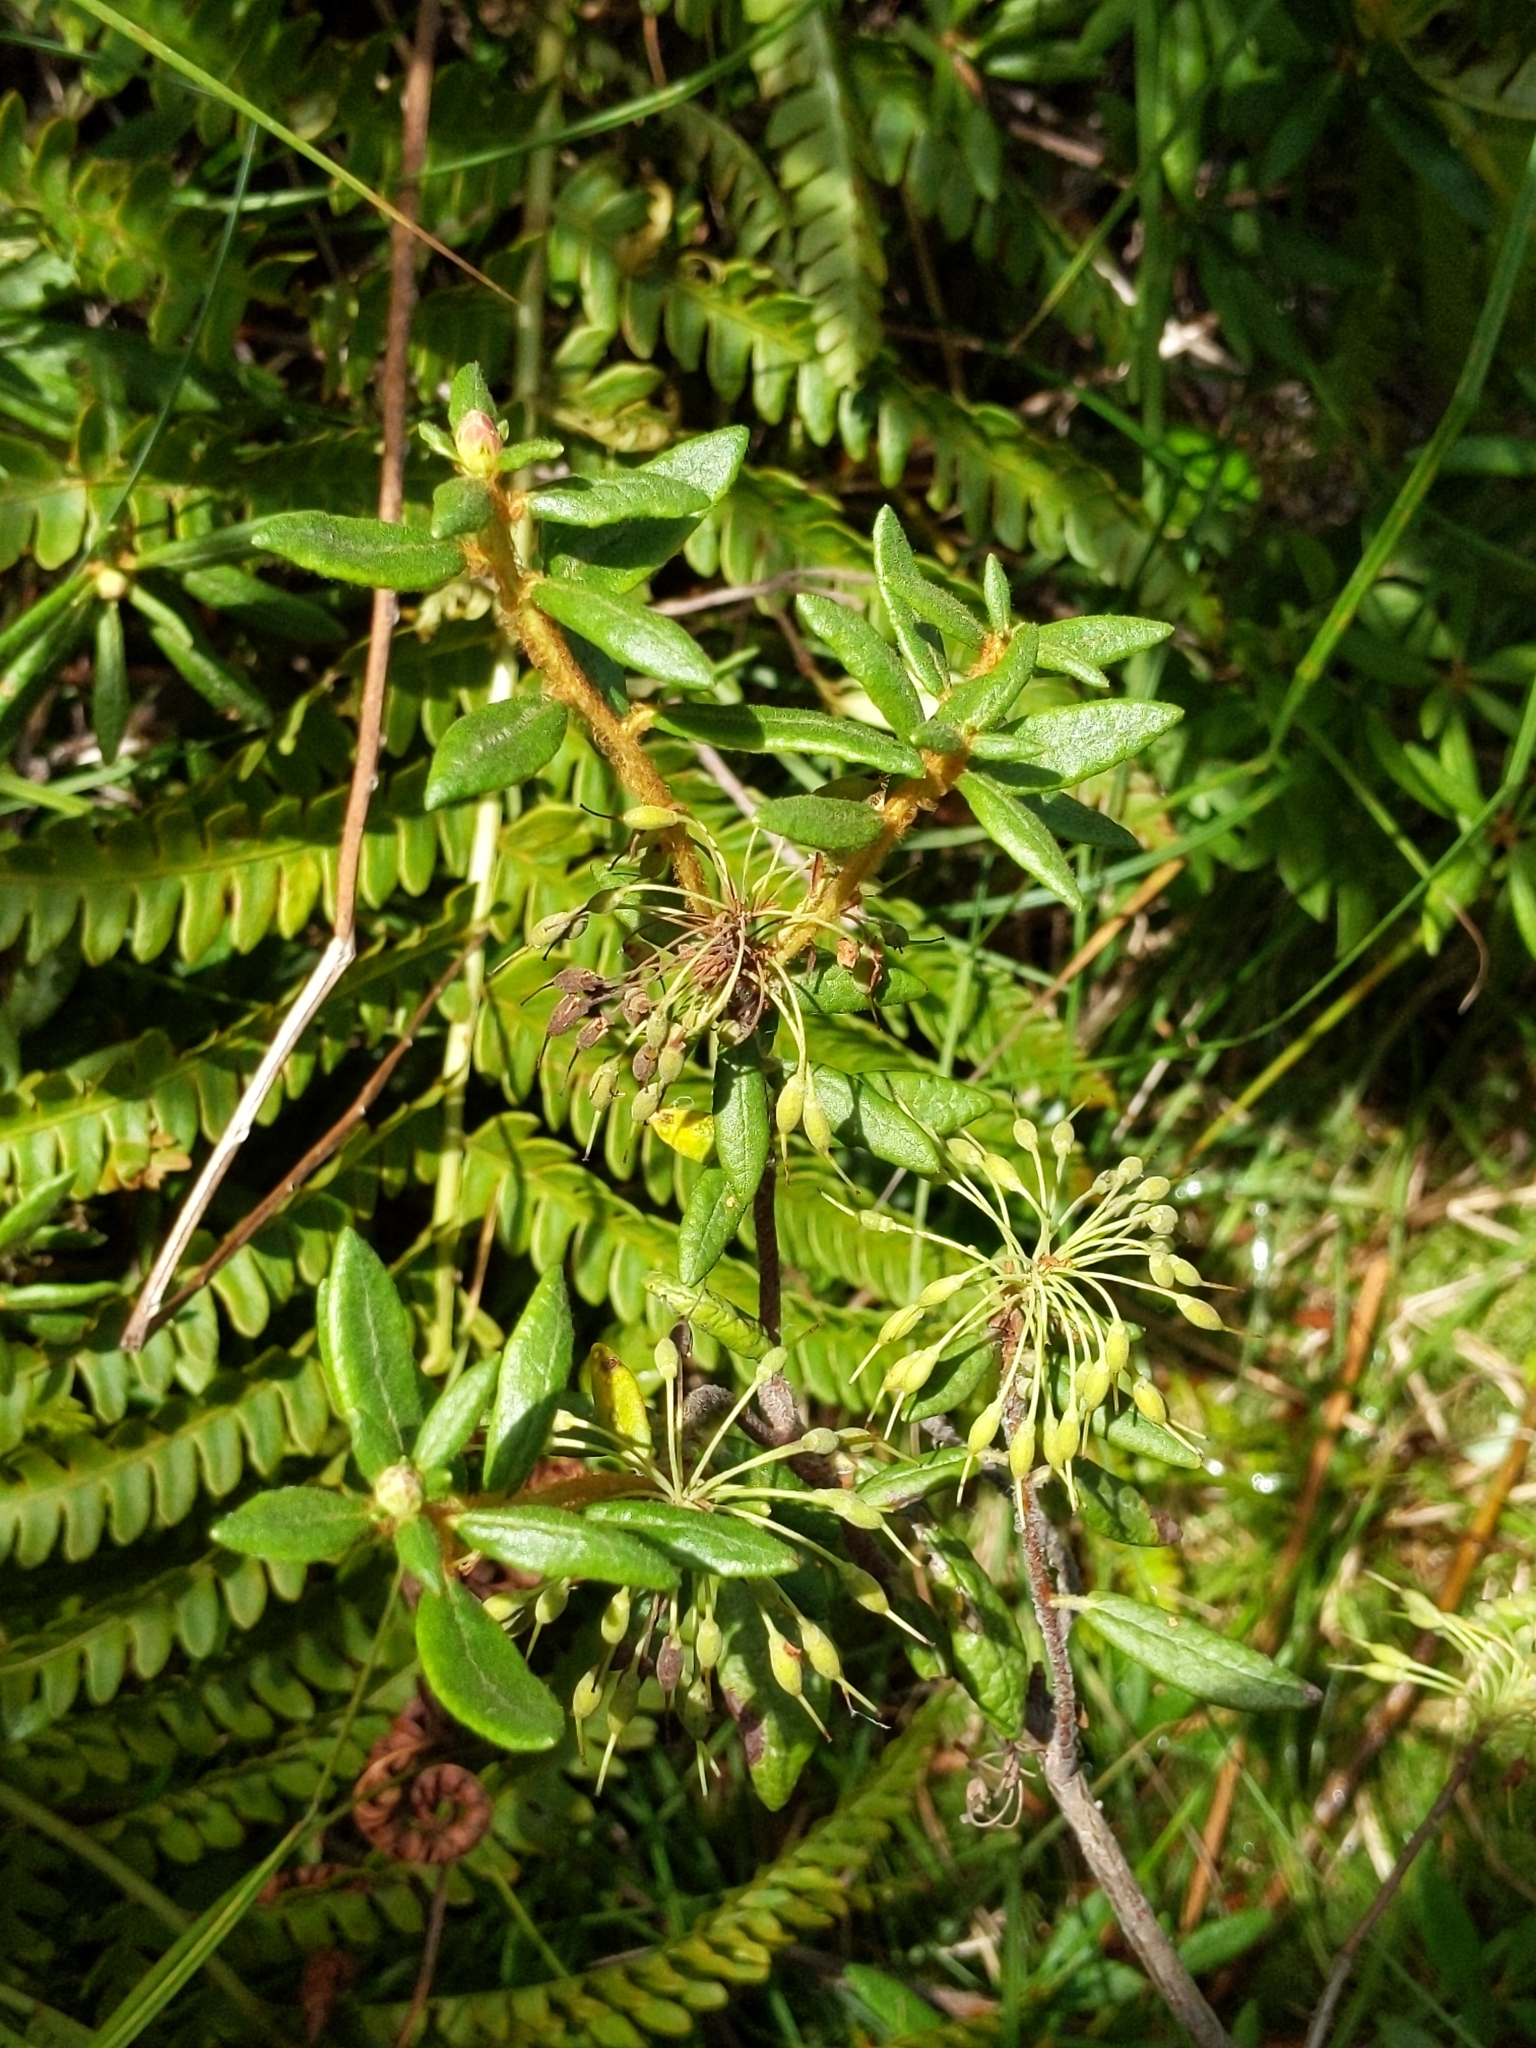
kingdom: Plantae
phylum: Tracheophyta
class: Magnoliopsida
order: Ericales
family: Ericaceae
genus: Rhododendron
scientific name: Rhododendron groenlandicum
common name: Bog labrador tea
